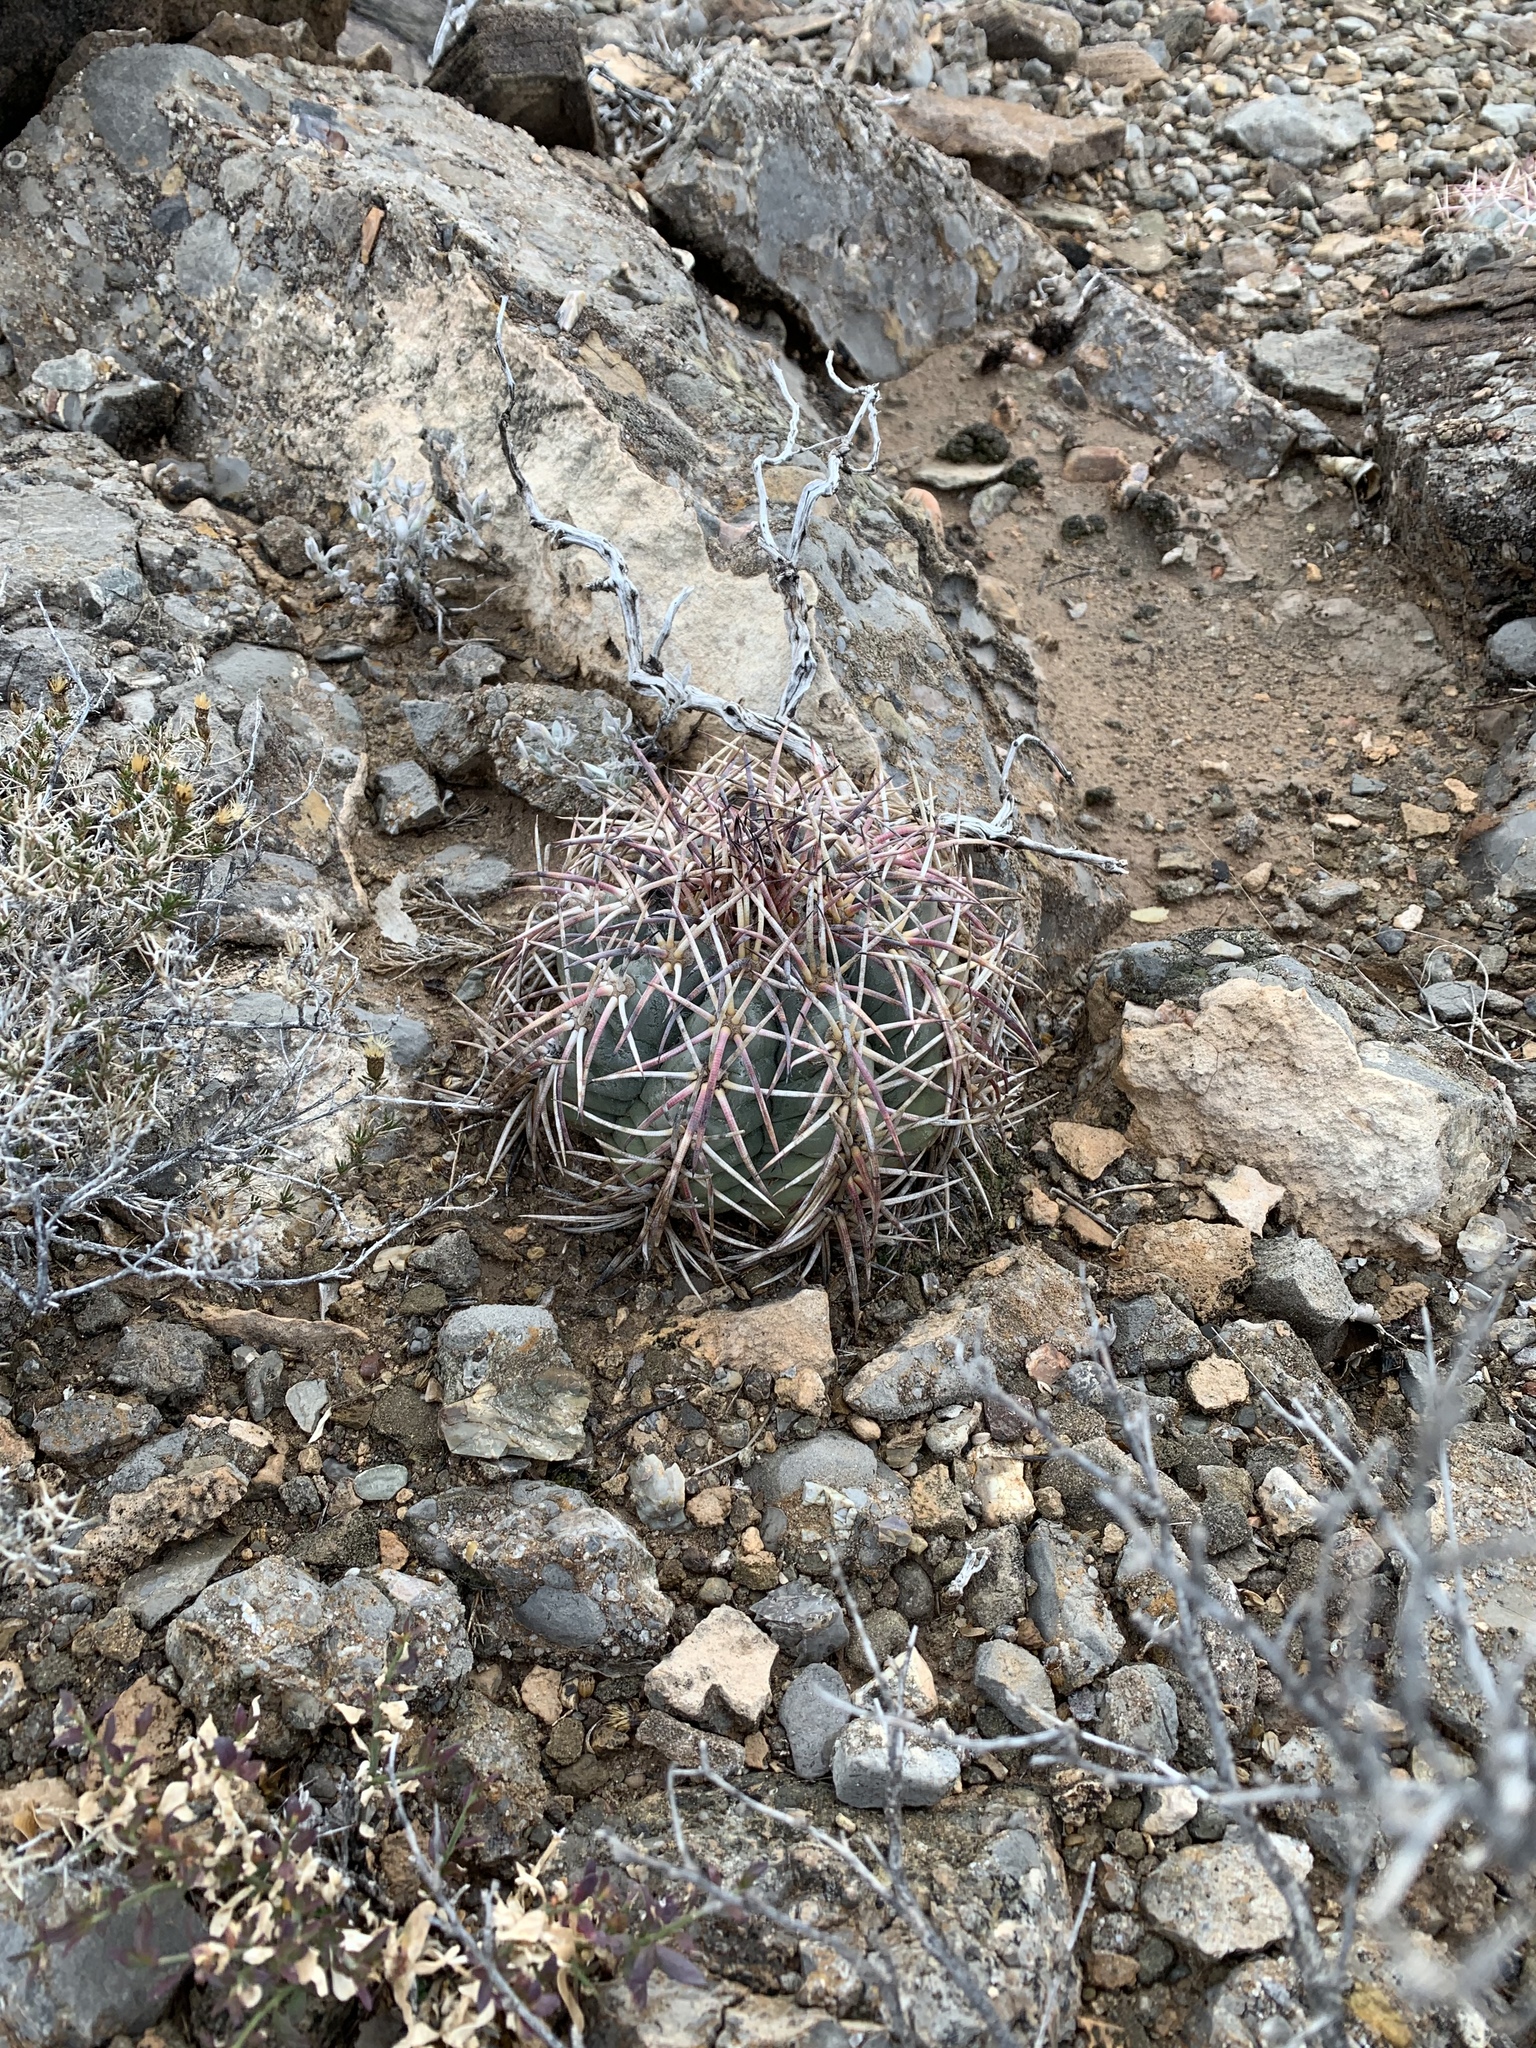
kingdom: Plantae
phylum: Tracheophyta
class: Magnoliopsida
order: Caryophyllales
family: Cactaceae
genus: Echinocactus
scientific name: Echinocactus horizonthalonius
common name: Devilshead
